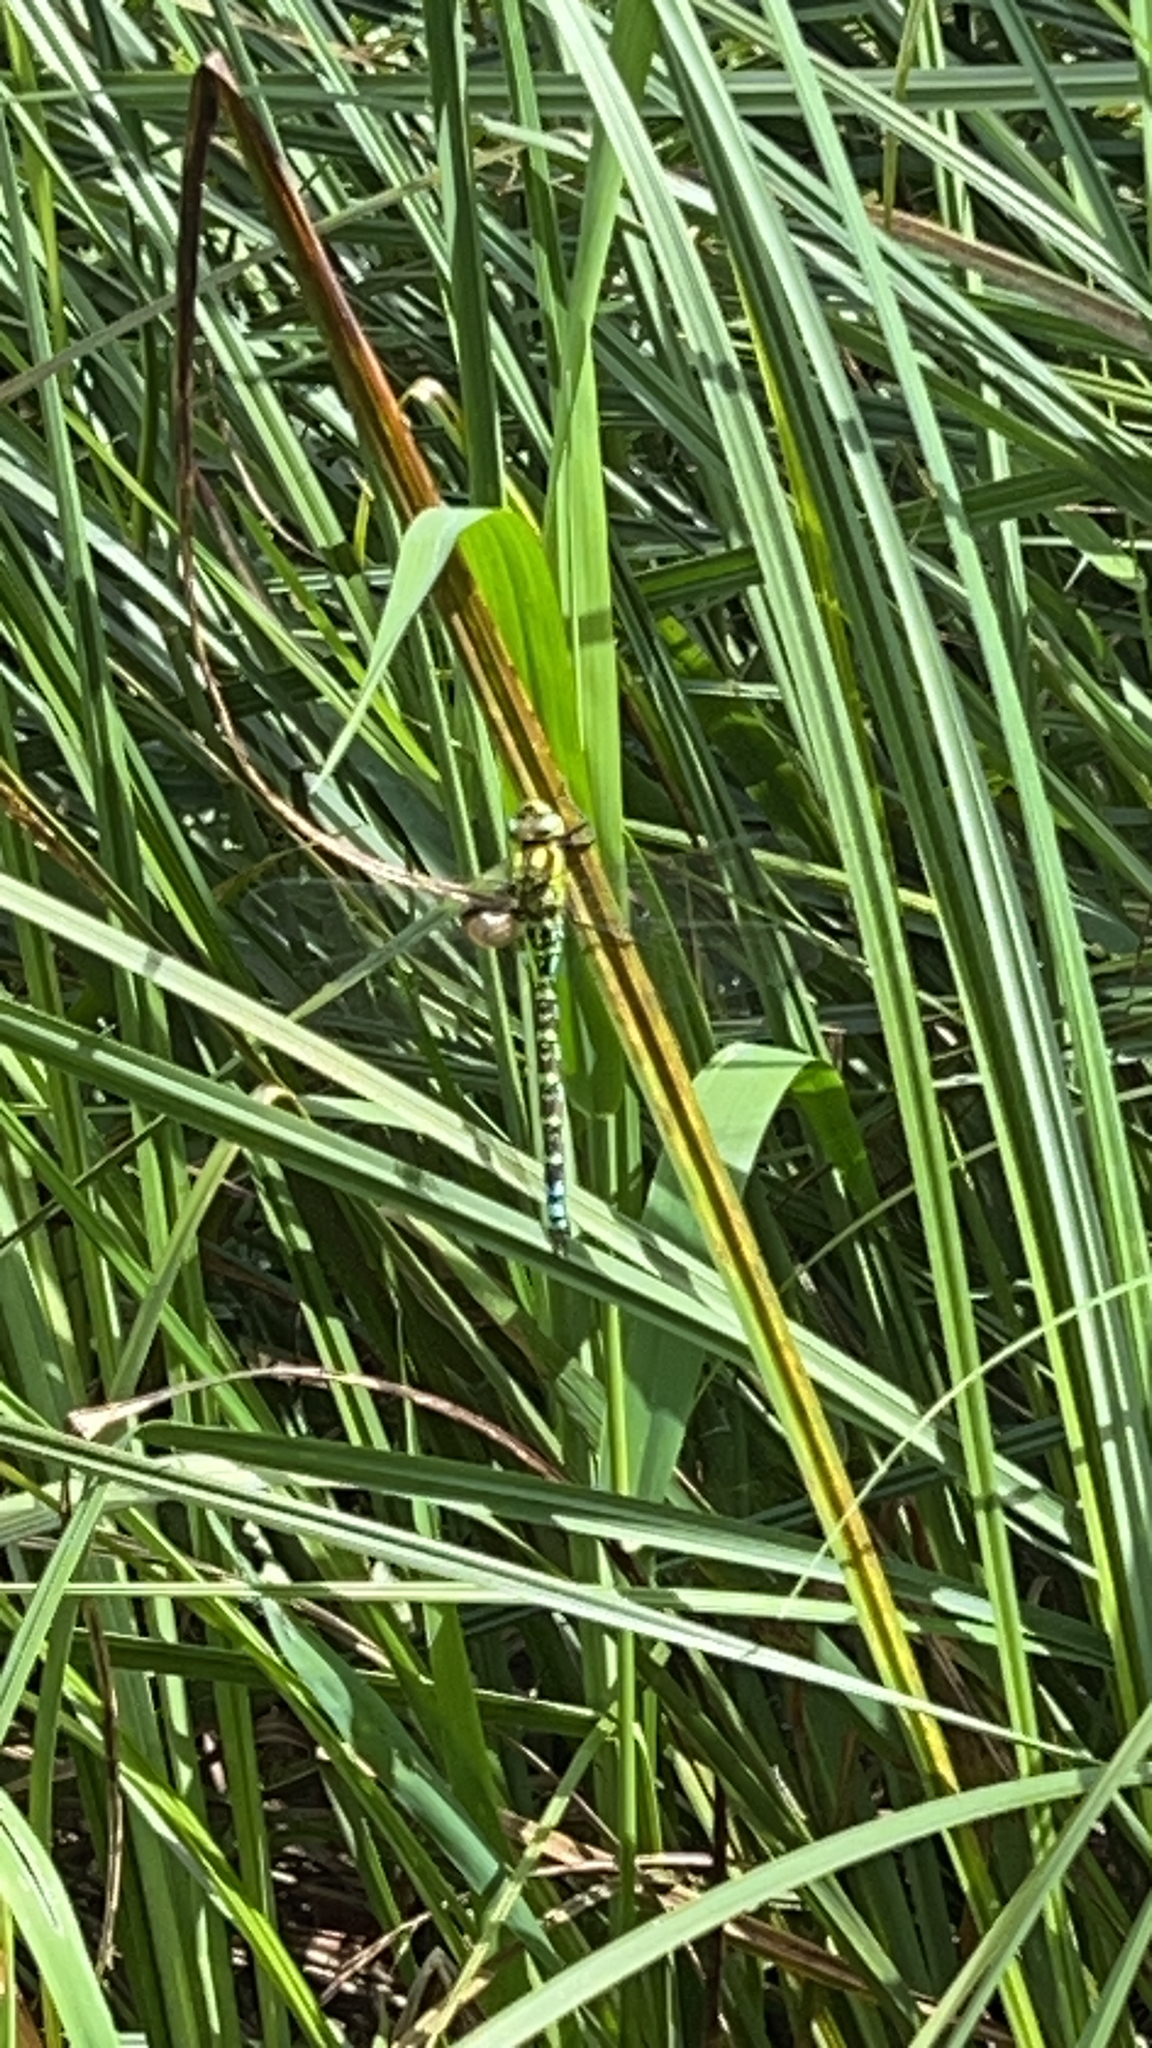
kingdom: Animalia
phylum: Arthropoda
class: Insecta
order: Odonata
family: Aeshnidae
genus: Aeshna
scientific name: Aeshna cyanea
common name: Southern hawker
